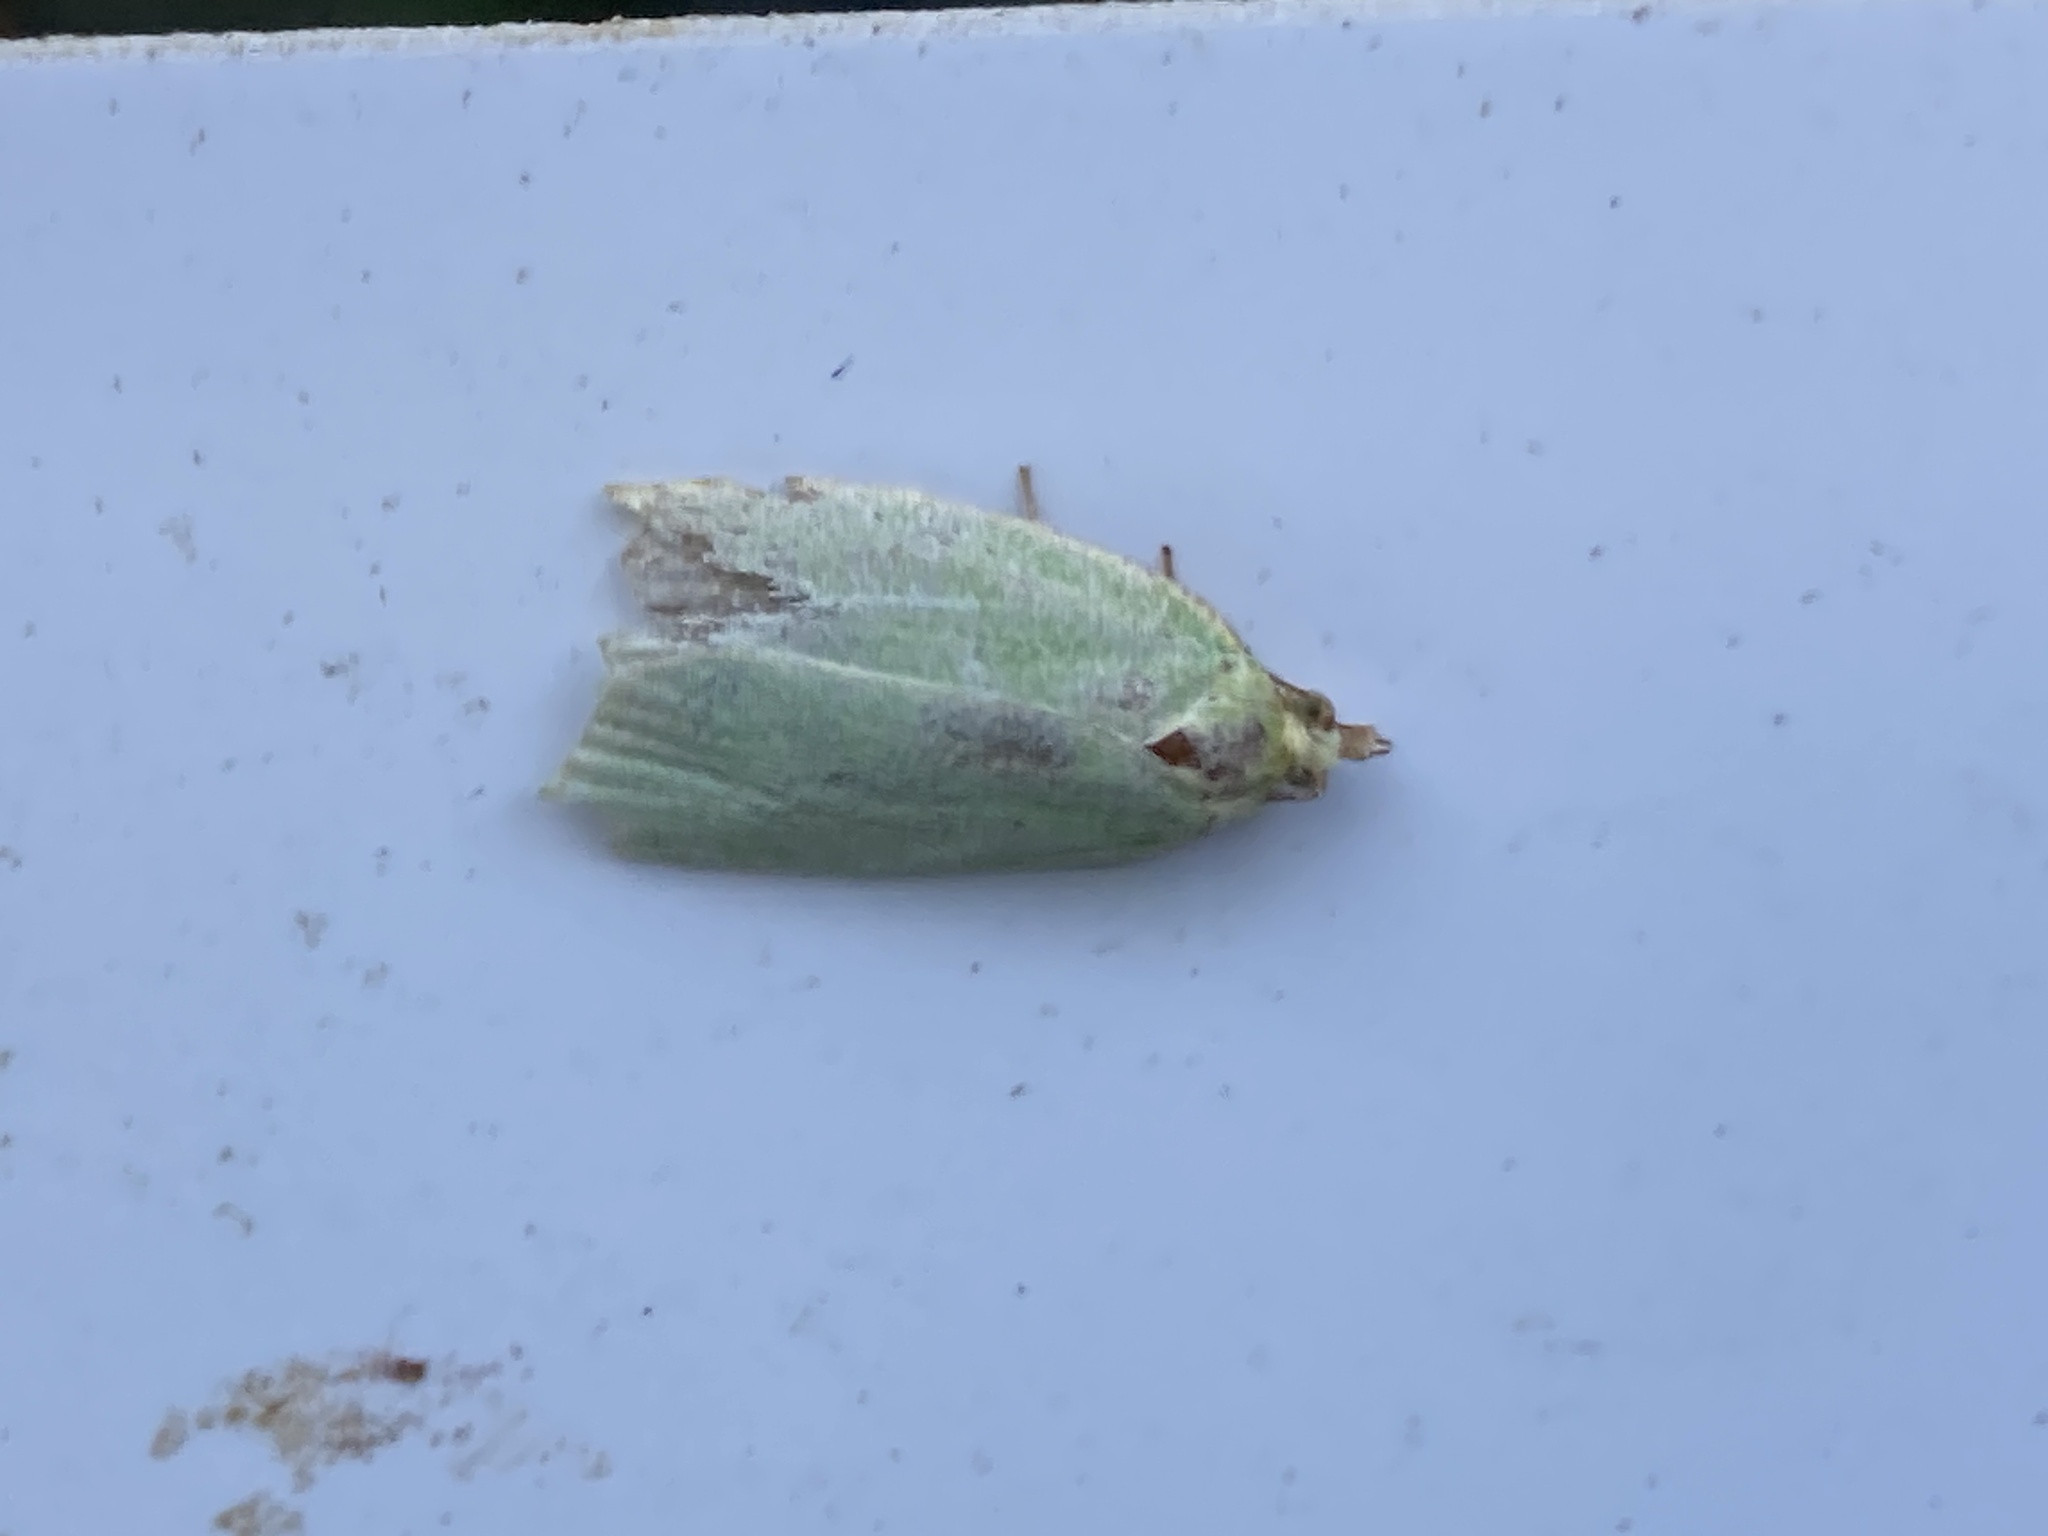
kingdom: Animalia
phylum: Arthropoda
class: Insecta
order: Lepidoptera
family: Tortricidae
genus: Tortrix
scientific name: Tortrix viridana
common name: Green oak tortrix
